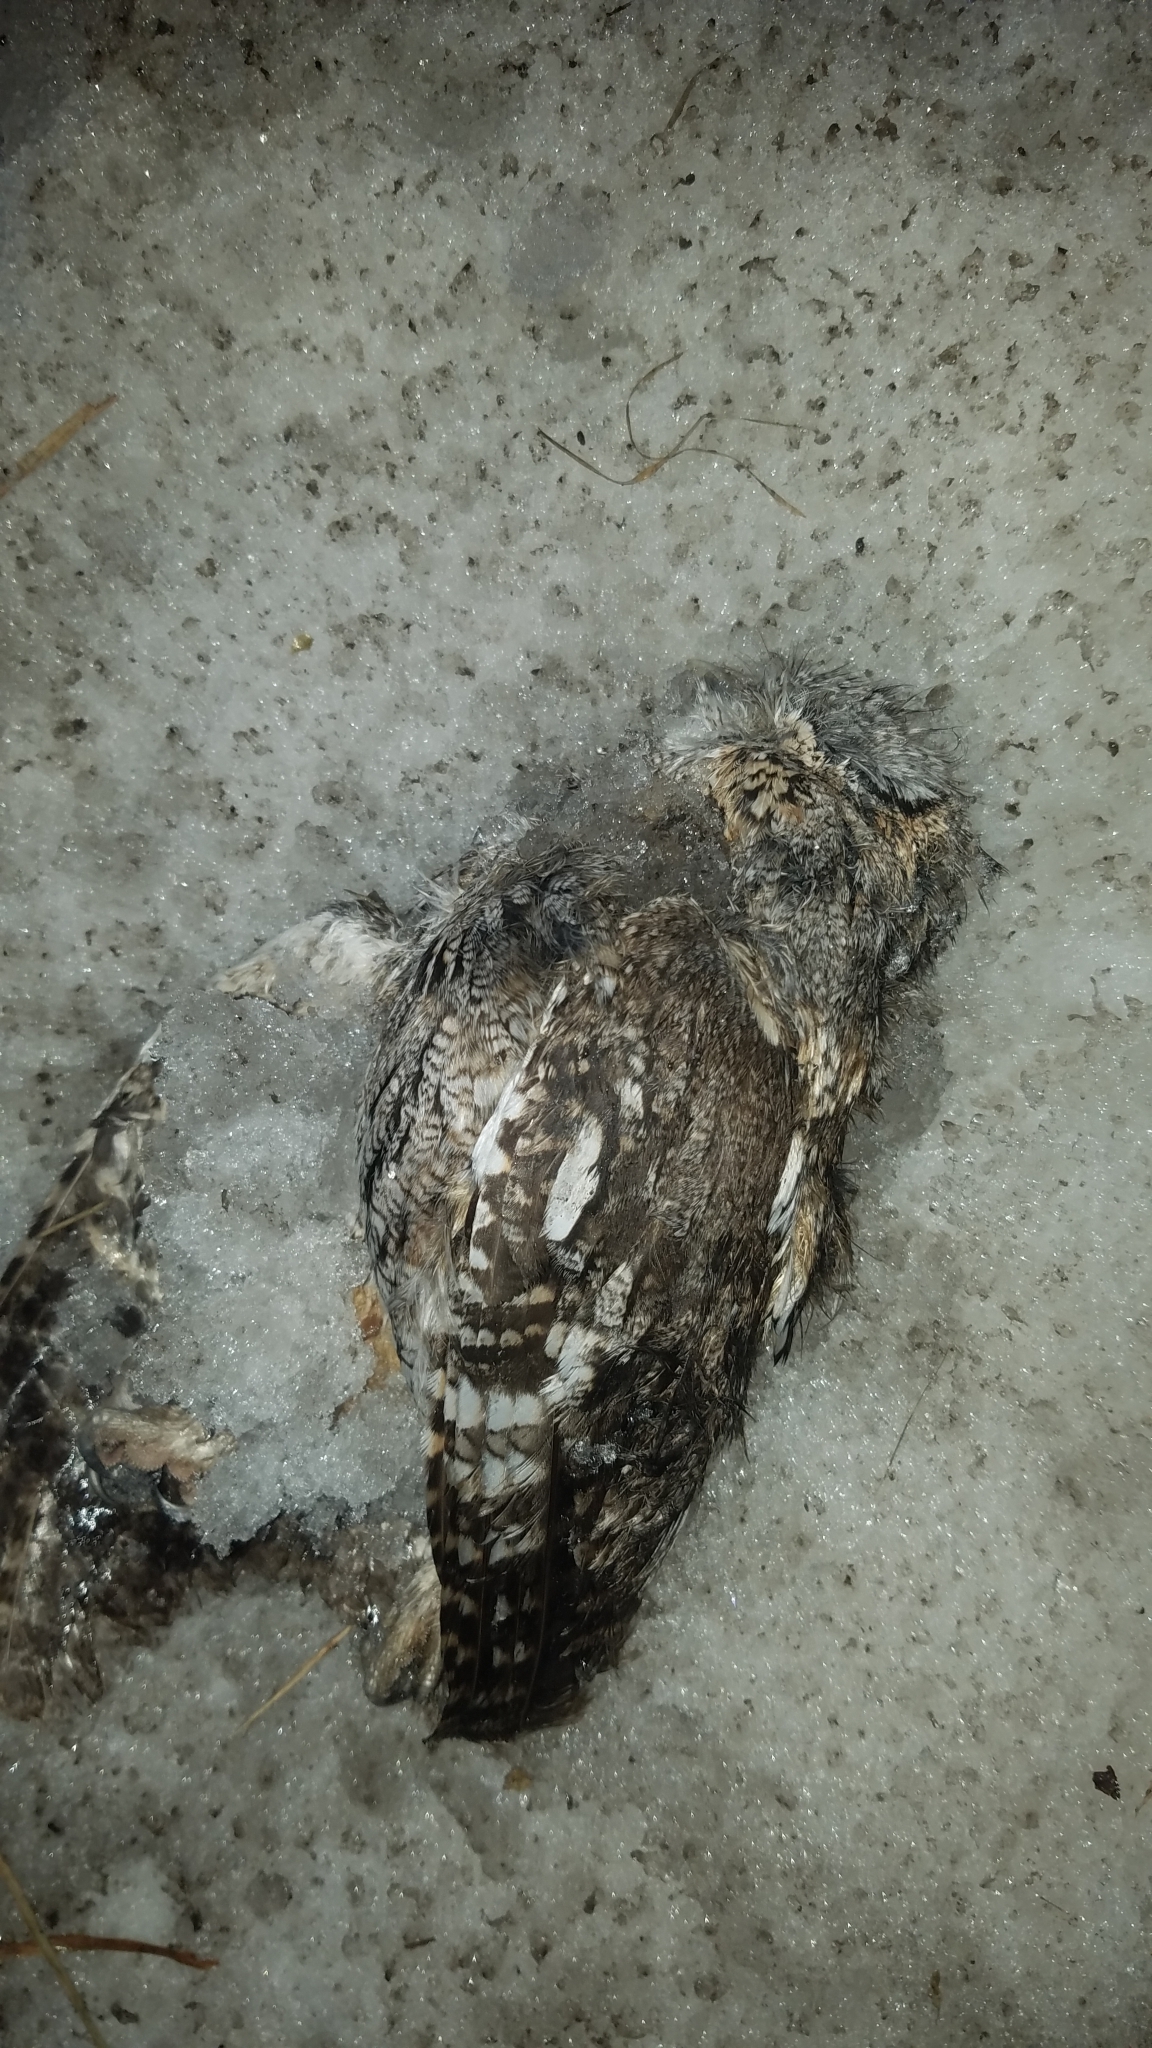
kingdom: Animalia
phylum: Chordata
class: Aves
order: Strigiformes
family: Strigidae
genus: Megascops
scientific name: Megascops asio
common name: Eastern screech-owl
